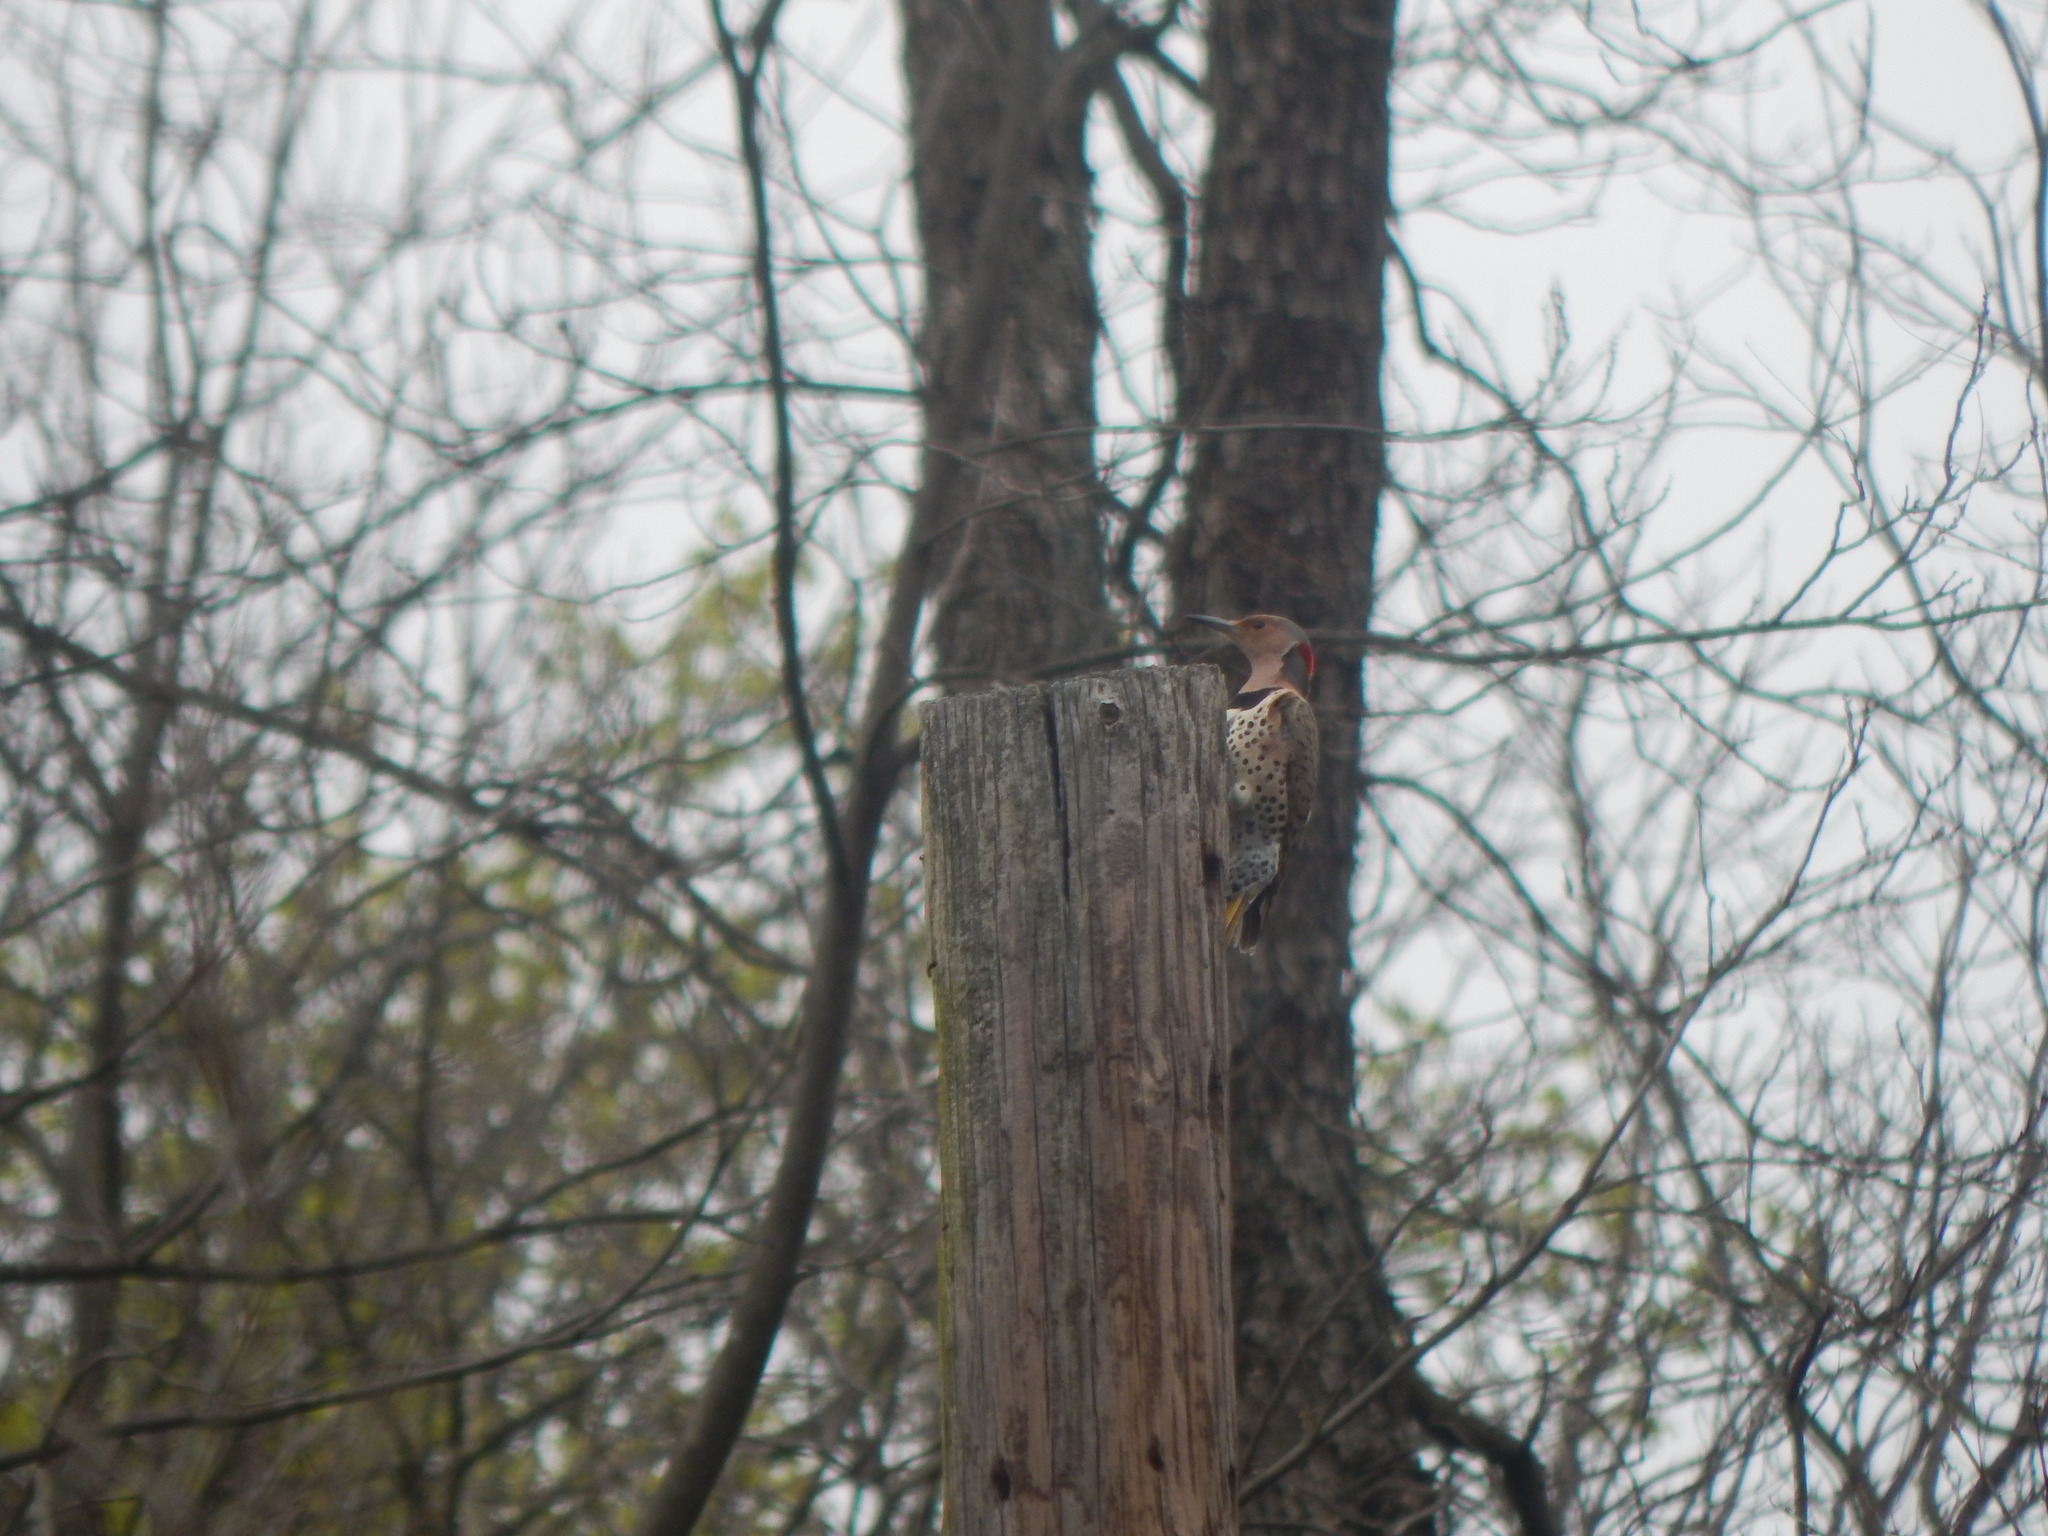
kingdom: Animalia
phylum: Chordata
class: Aves
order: Piciformes
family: Picidae
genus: Colaptes
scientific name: Colaptes auratus
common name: Northern flicker
